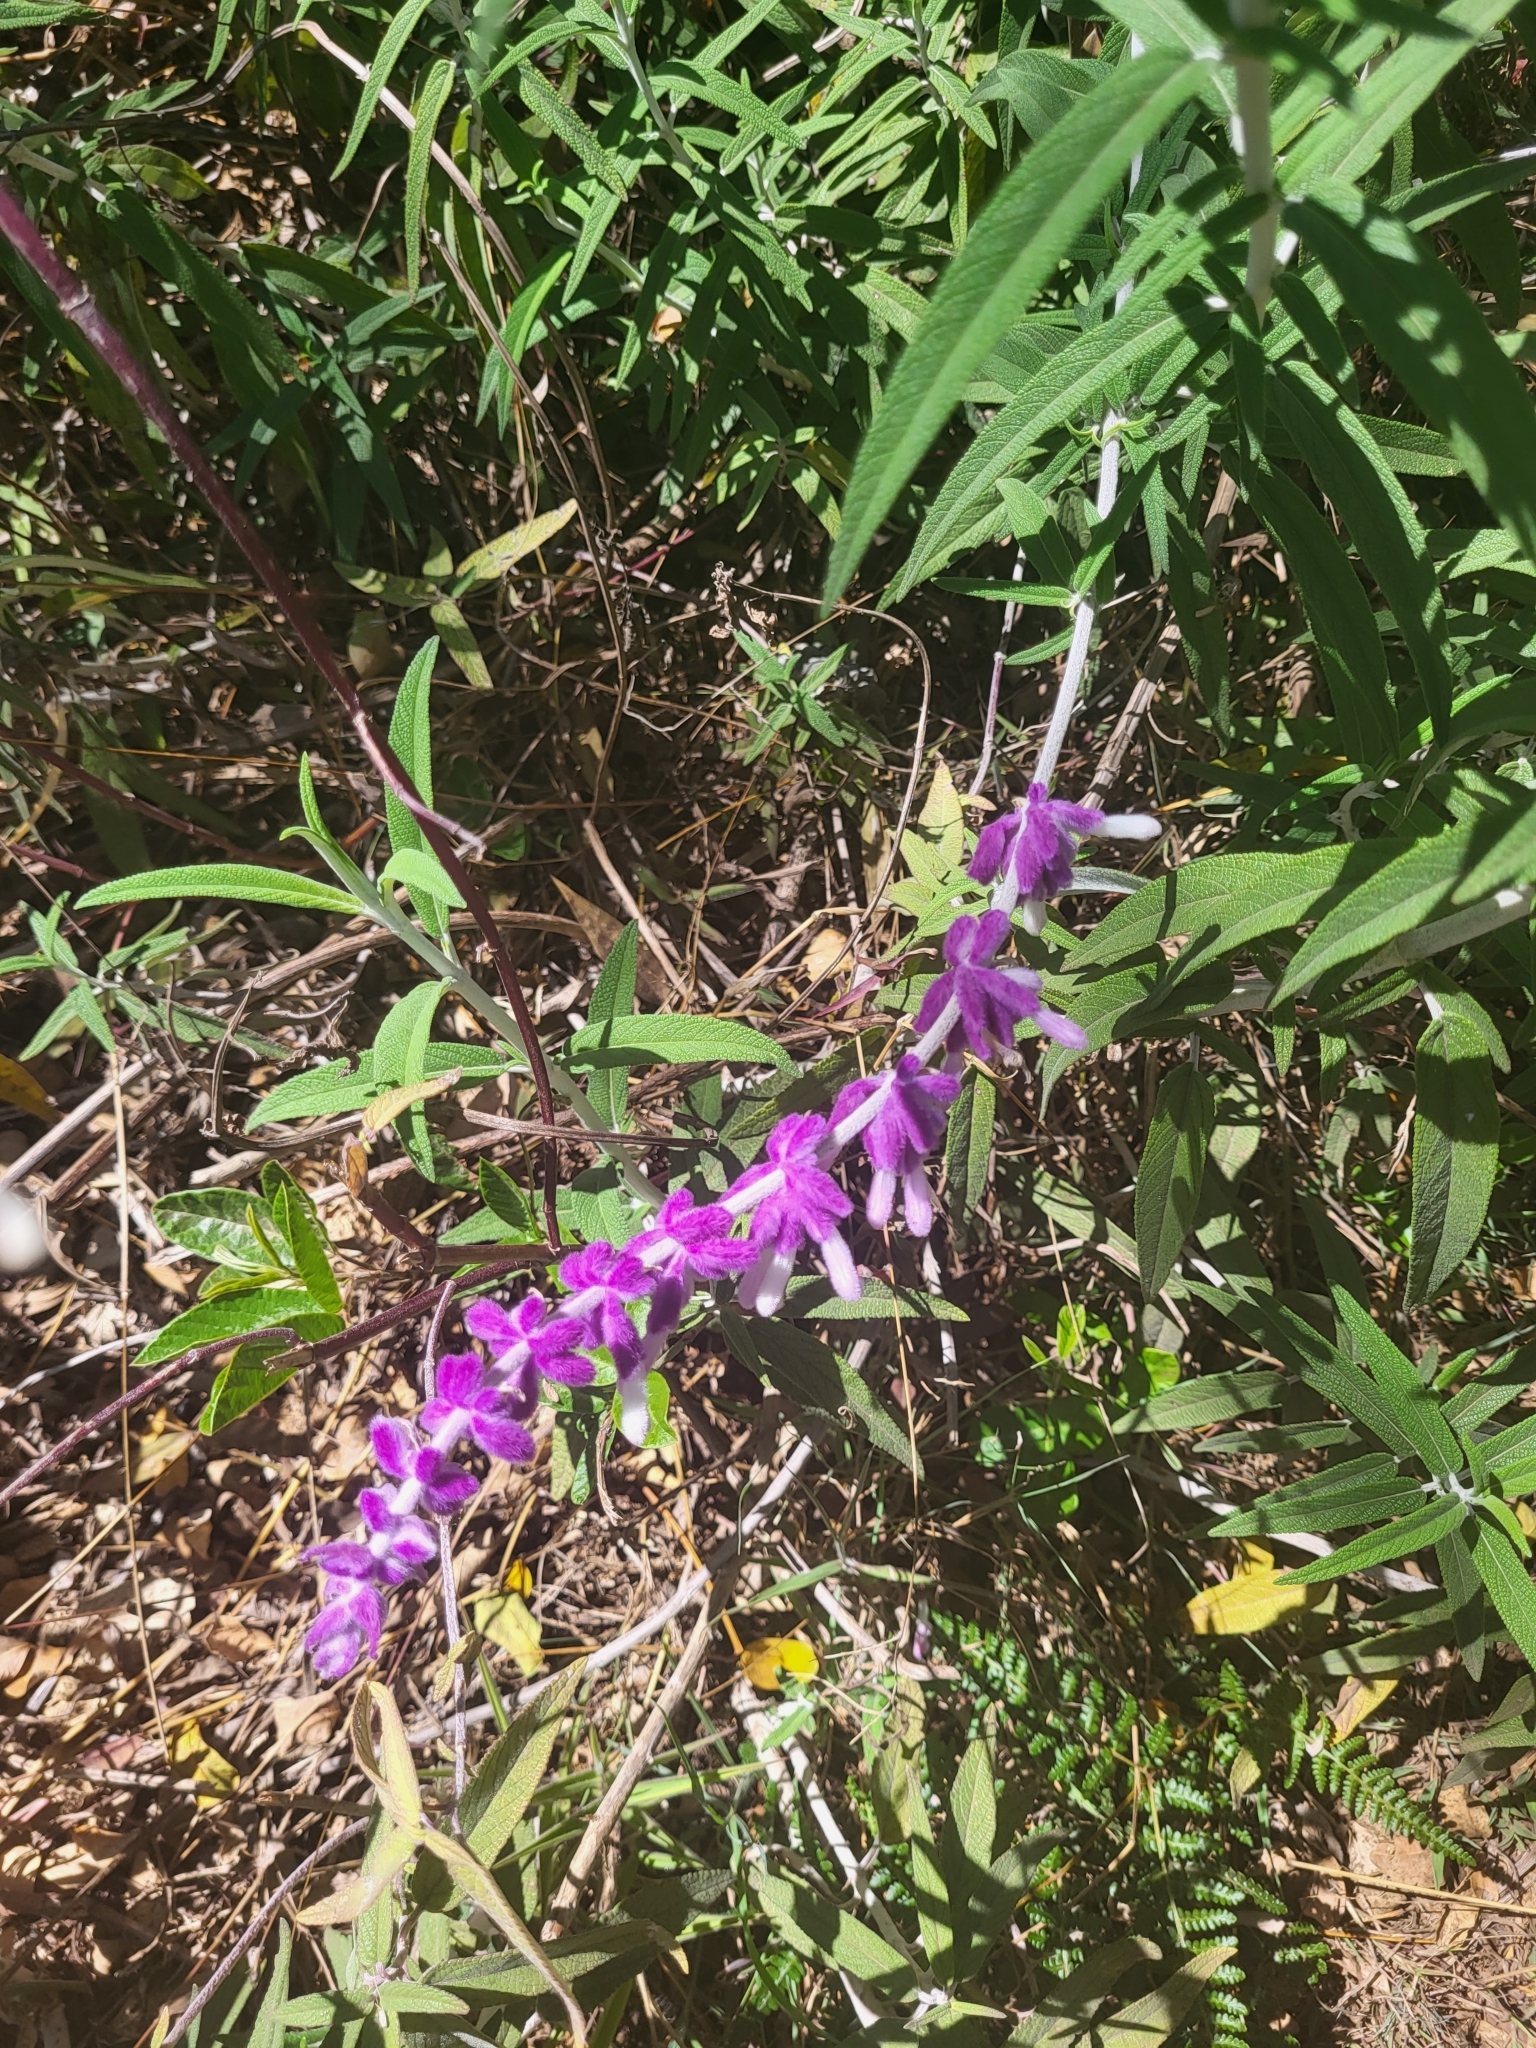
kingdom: Plantae
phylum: Tracheophyta
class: Magnoliopsida
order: Lamiales
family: Lamiaceae
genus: Salvia
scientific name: Salvia leucantha
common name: Mexican bush sage
